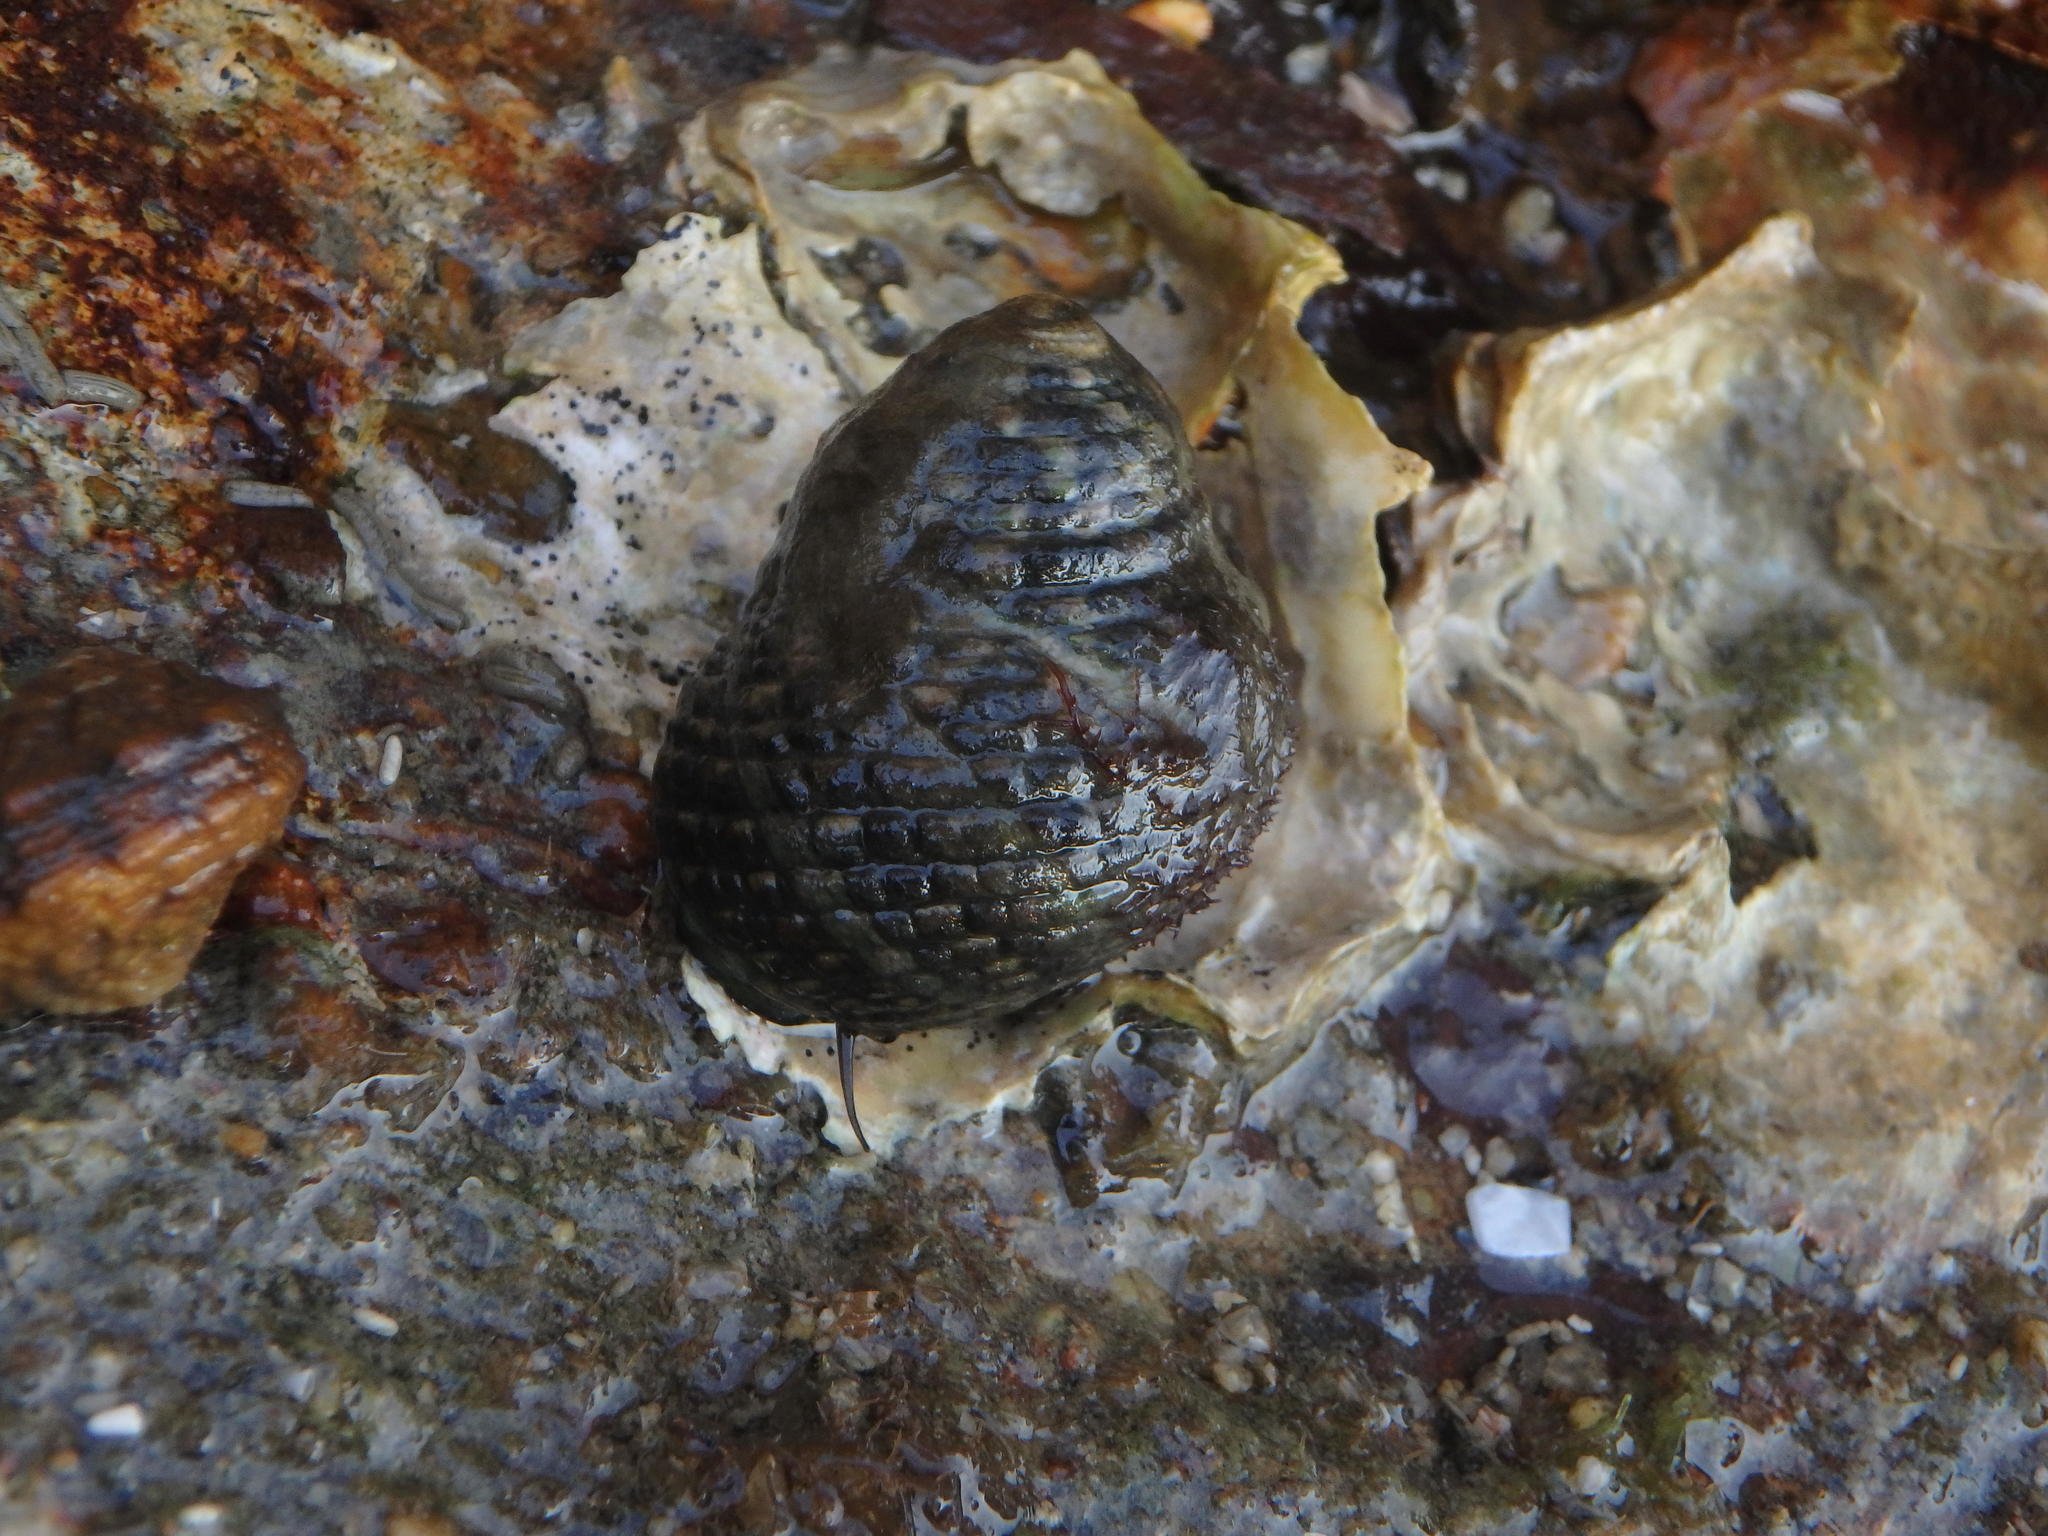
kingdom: Animalia
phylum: Mollusca
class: Gastropoda
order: Trochida
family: Trochidae
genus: Monodonta
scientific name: Monodonta confusa
